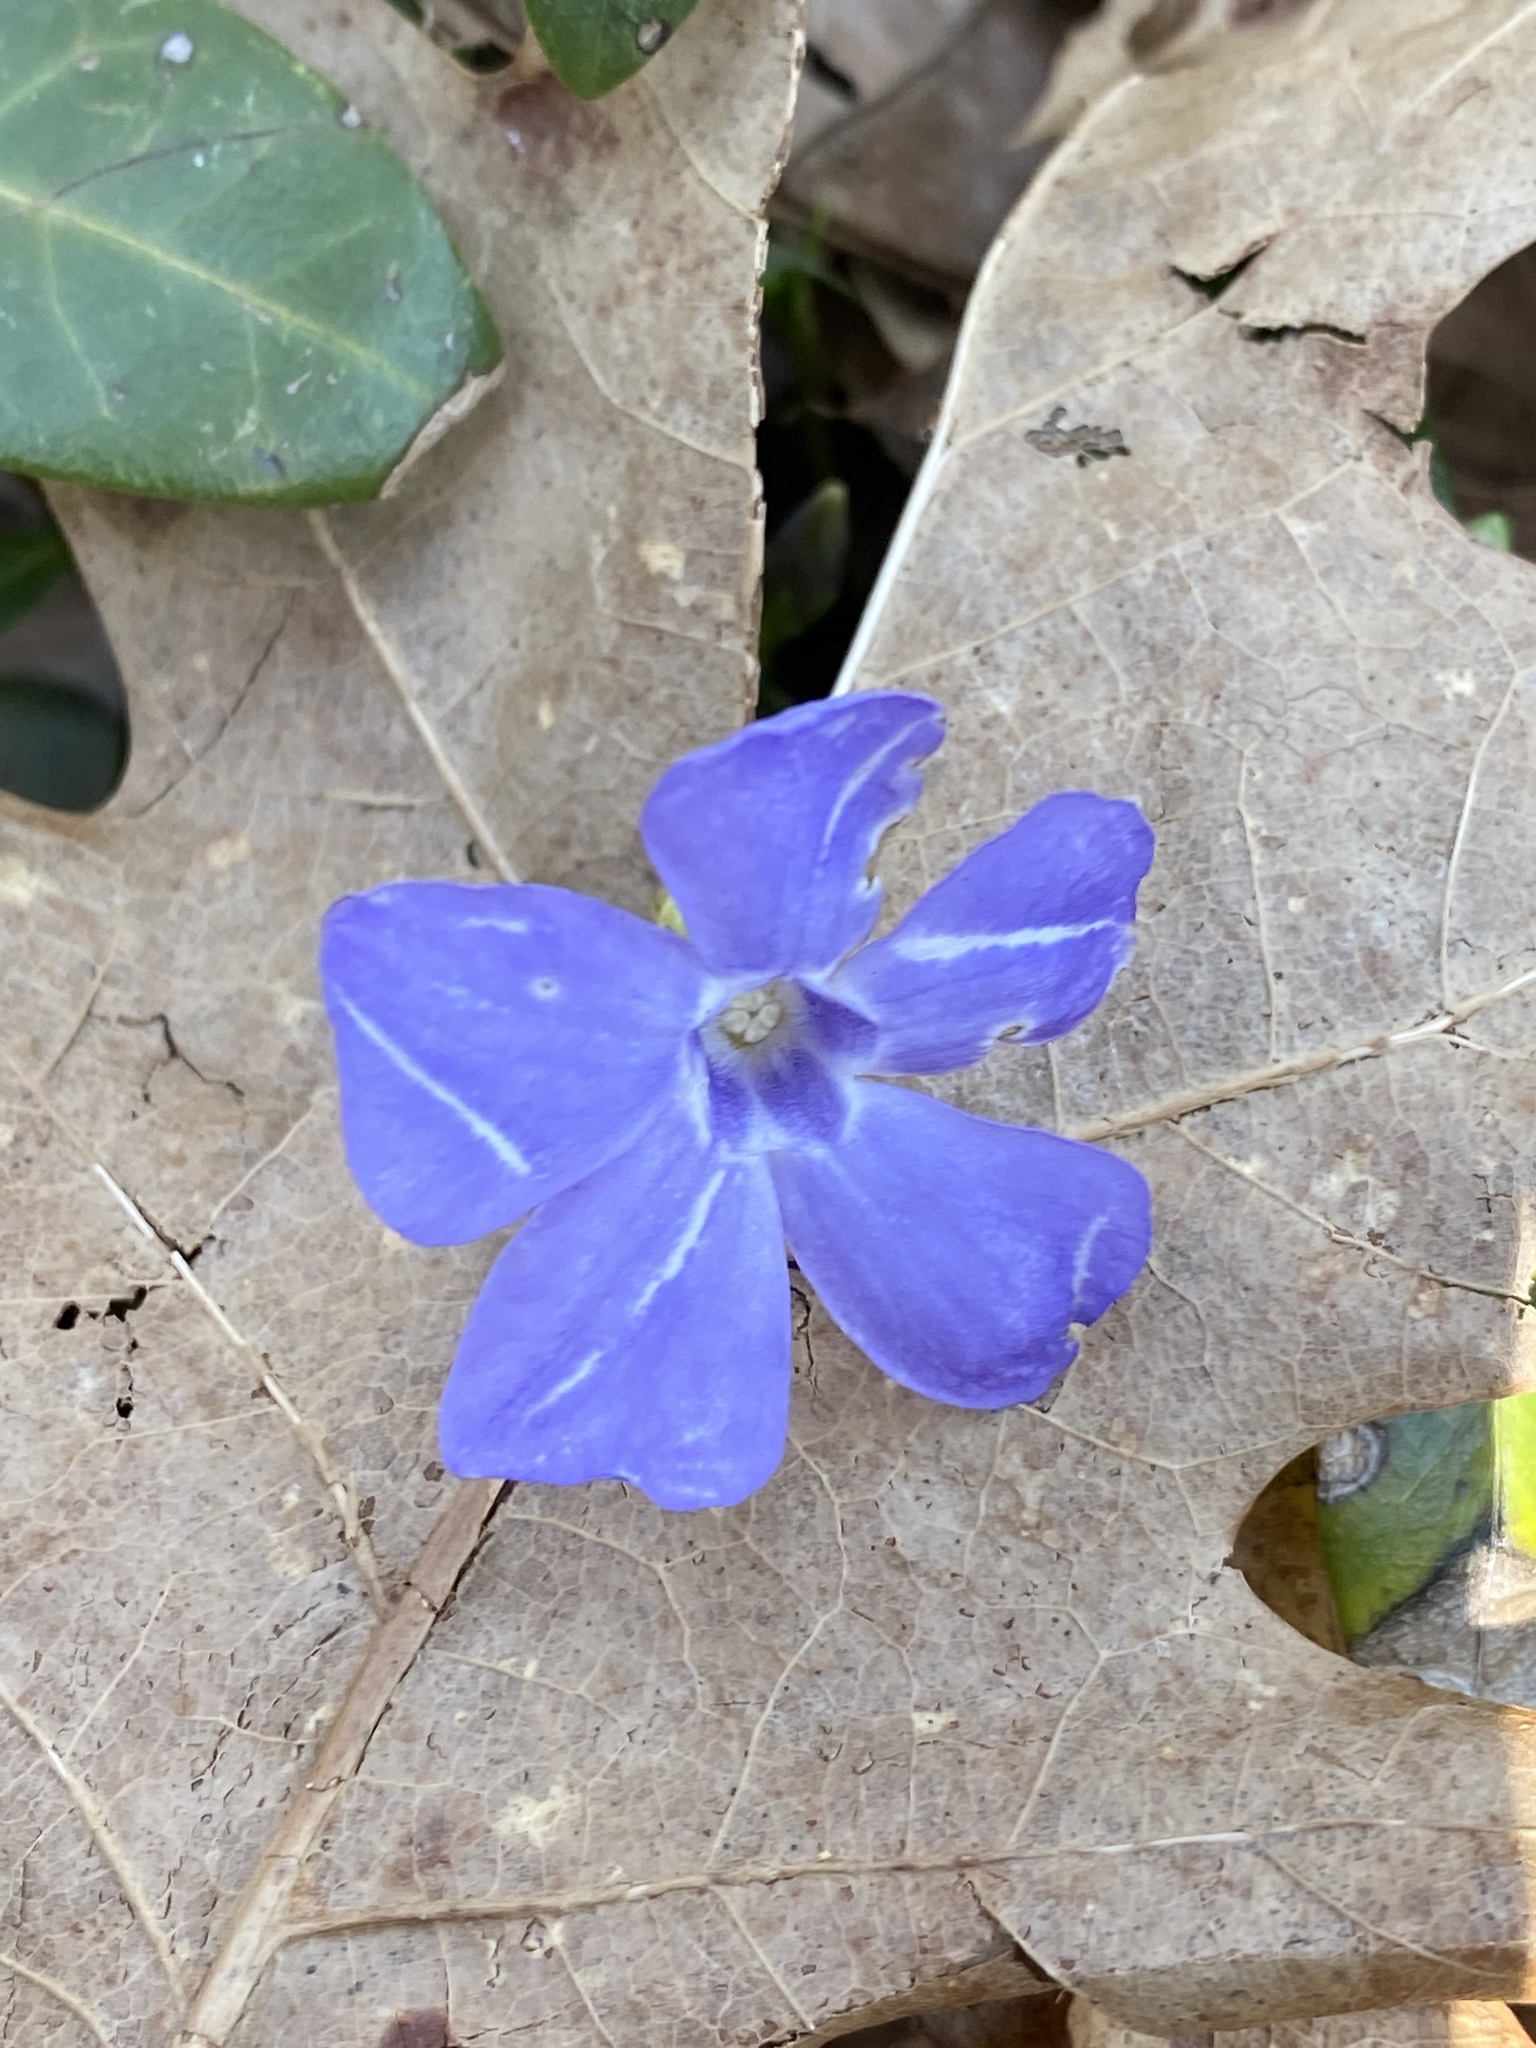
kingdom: Plantae
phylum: Tracheophyta
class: Magnoliopsida
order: Gentianales
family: Apocynaceae
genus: Vinca
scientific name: Vinca minor
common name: Lesser periwinkle
